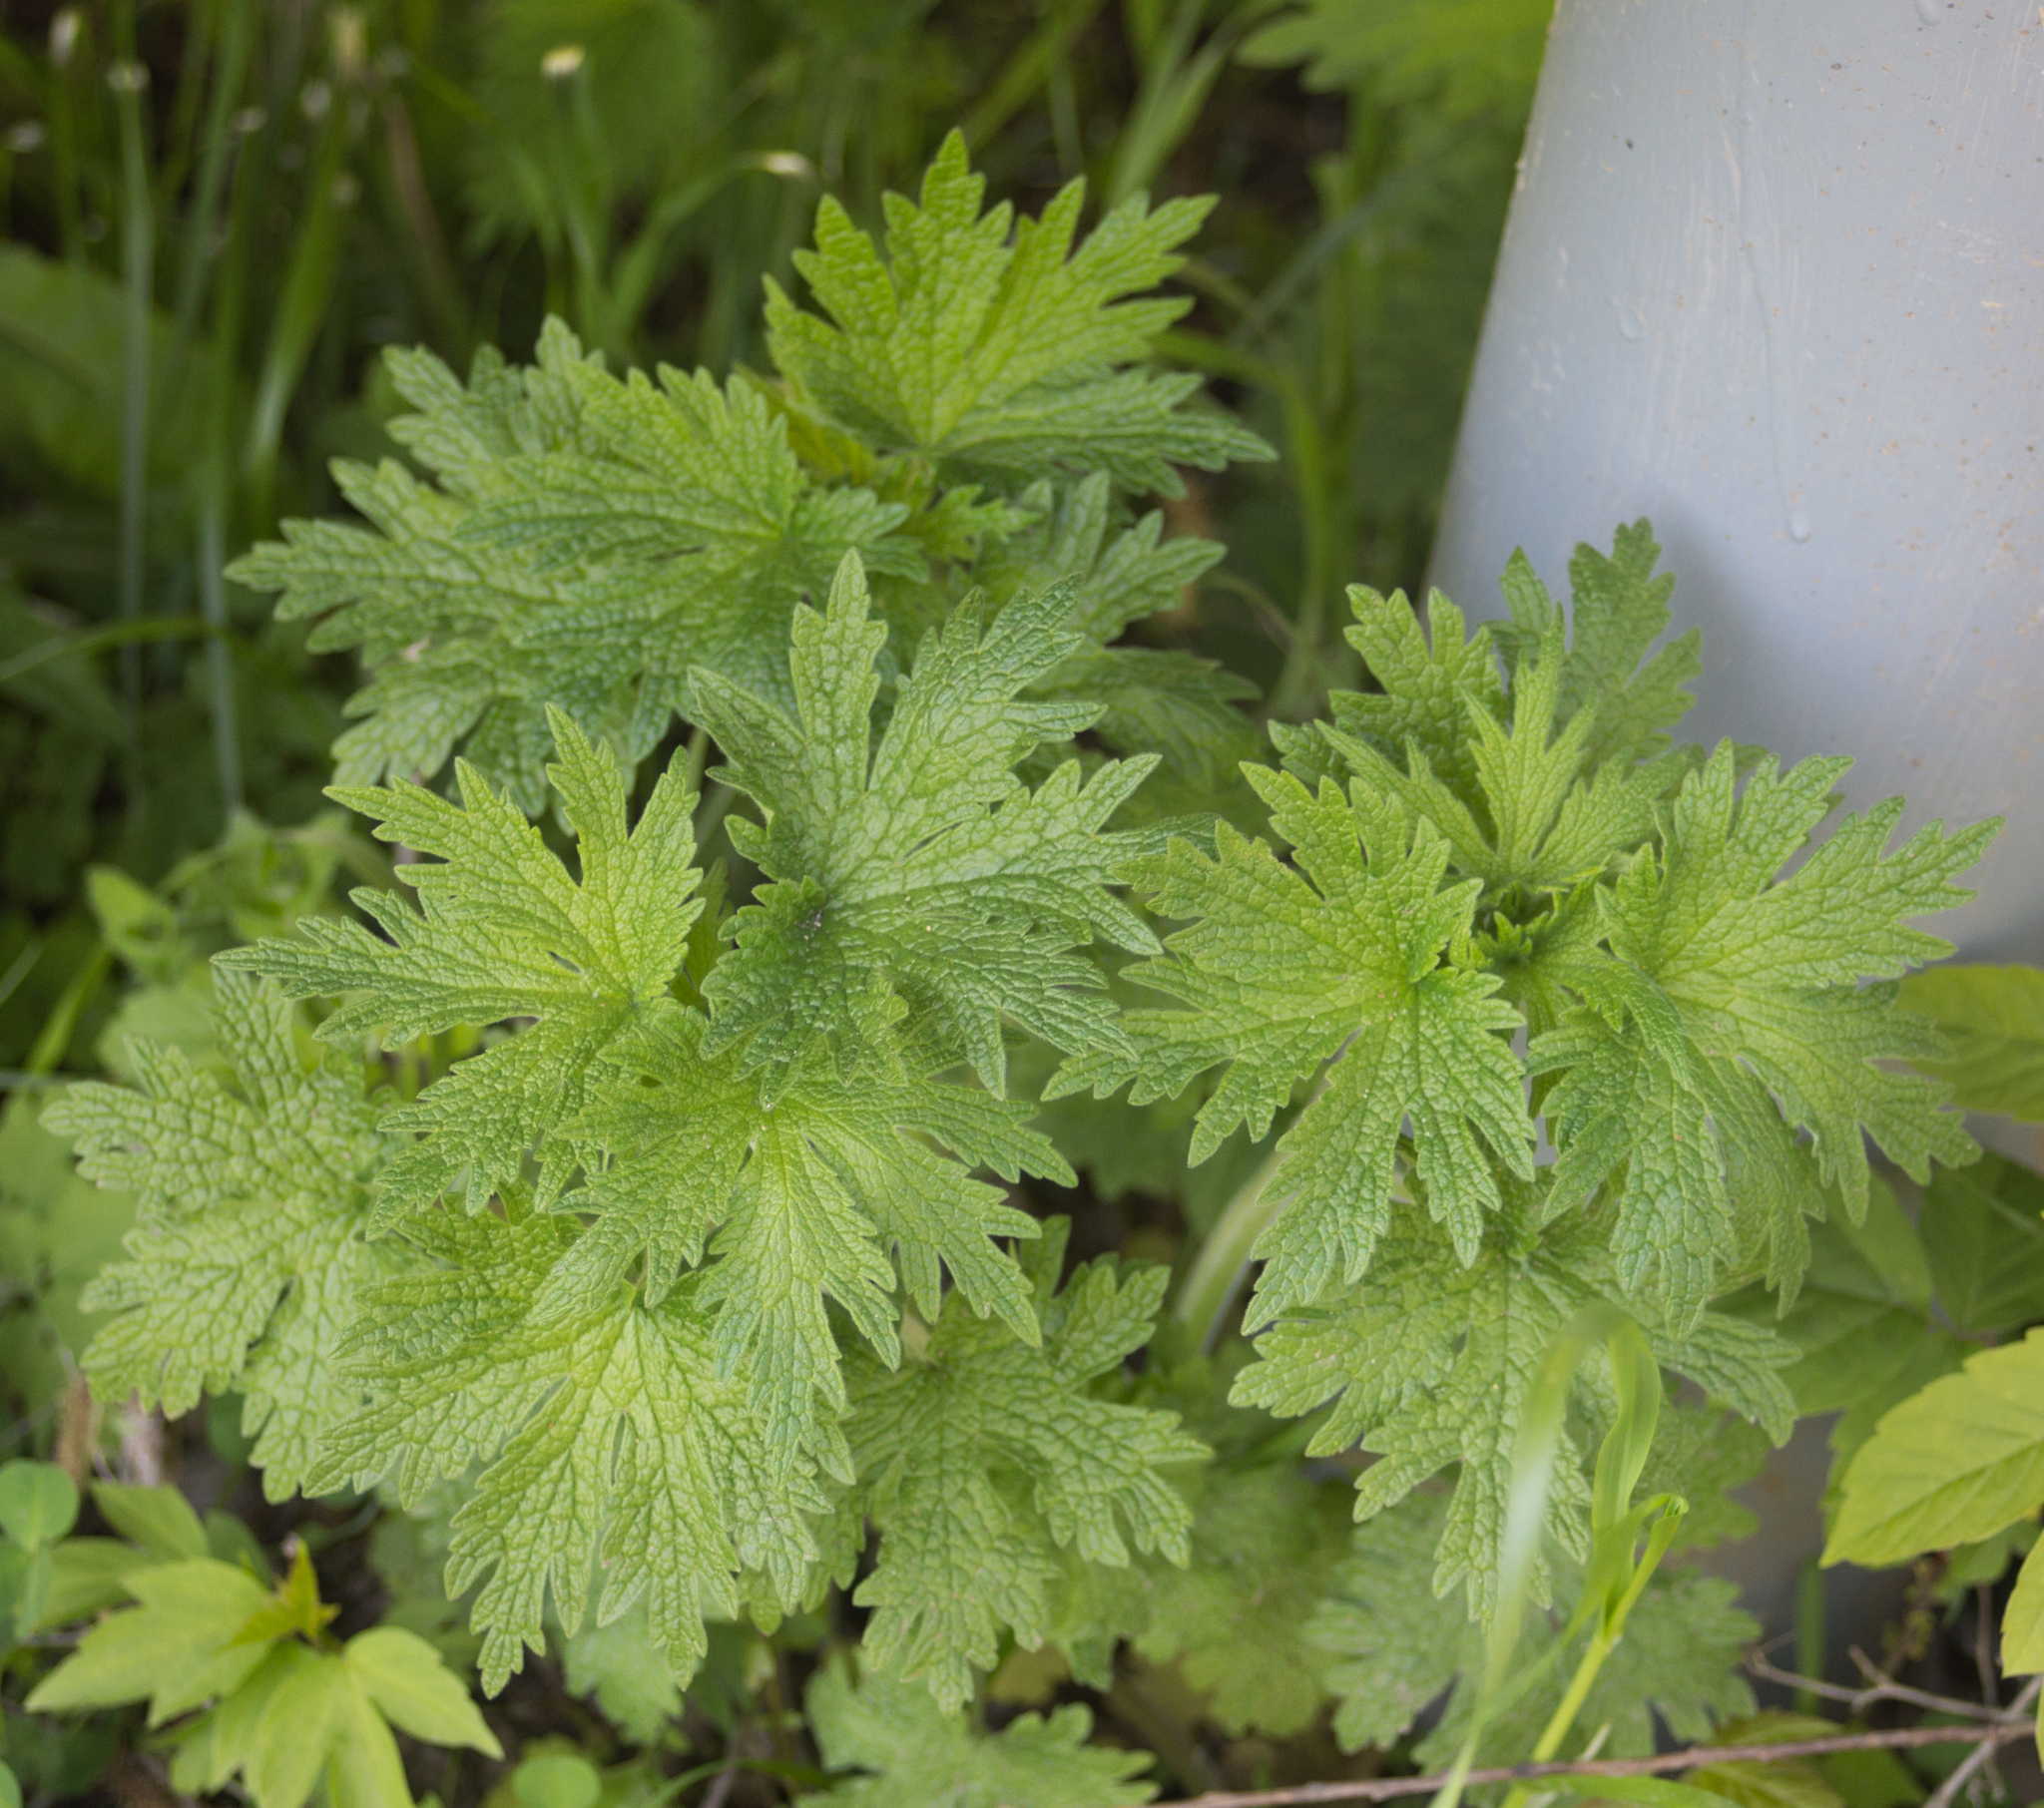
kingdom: Plantae
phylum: Tracheophyta
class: Magnoliopsida
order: Lamiales
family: Lamiaceae
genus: Leonurus
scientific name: Leonurus quinquelobatus
